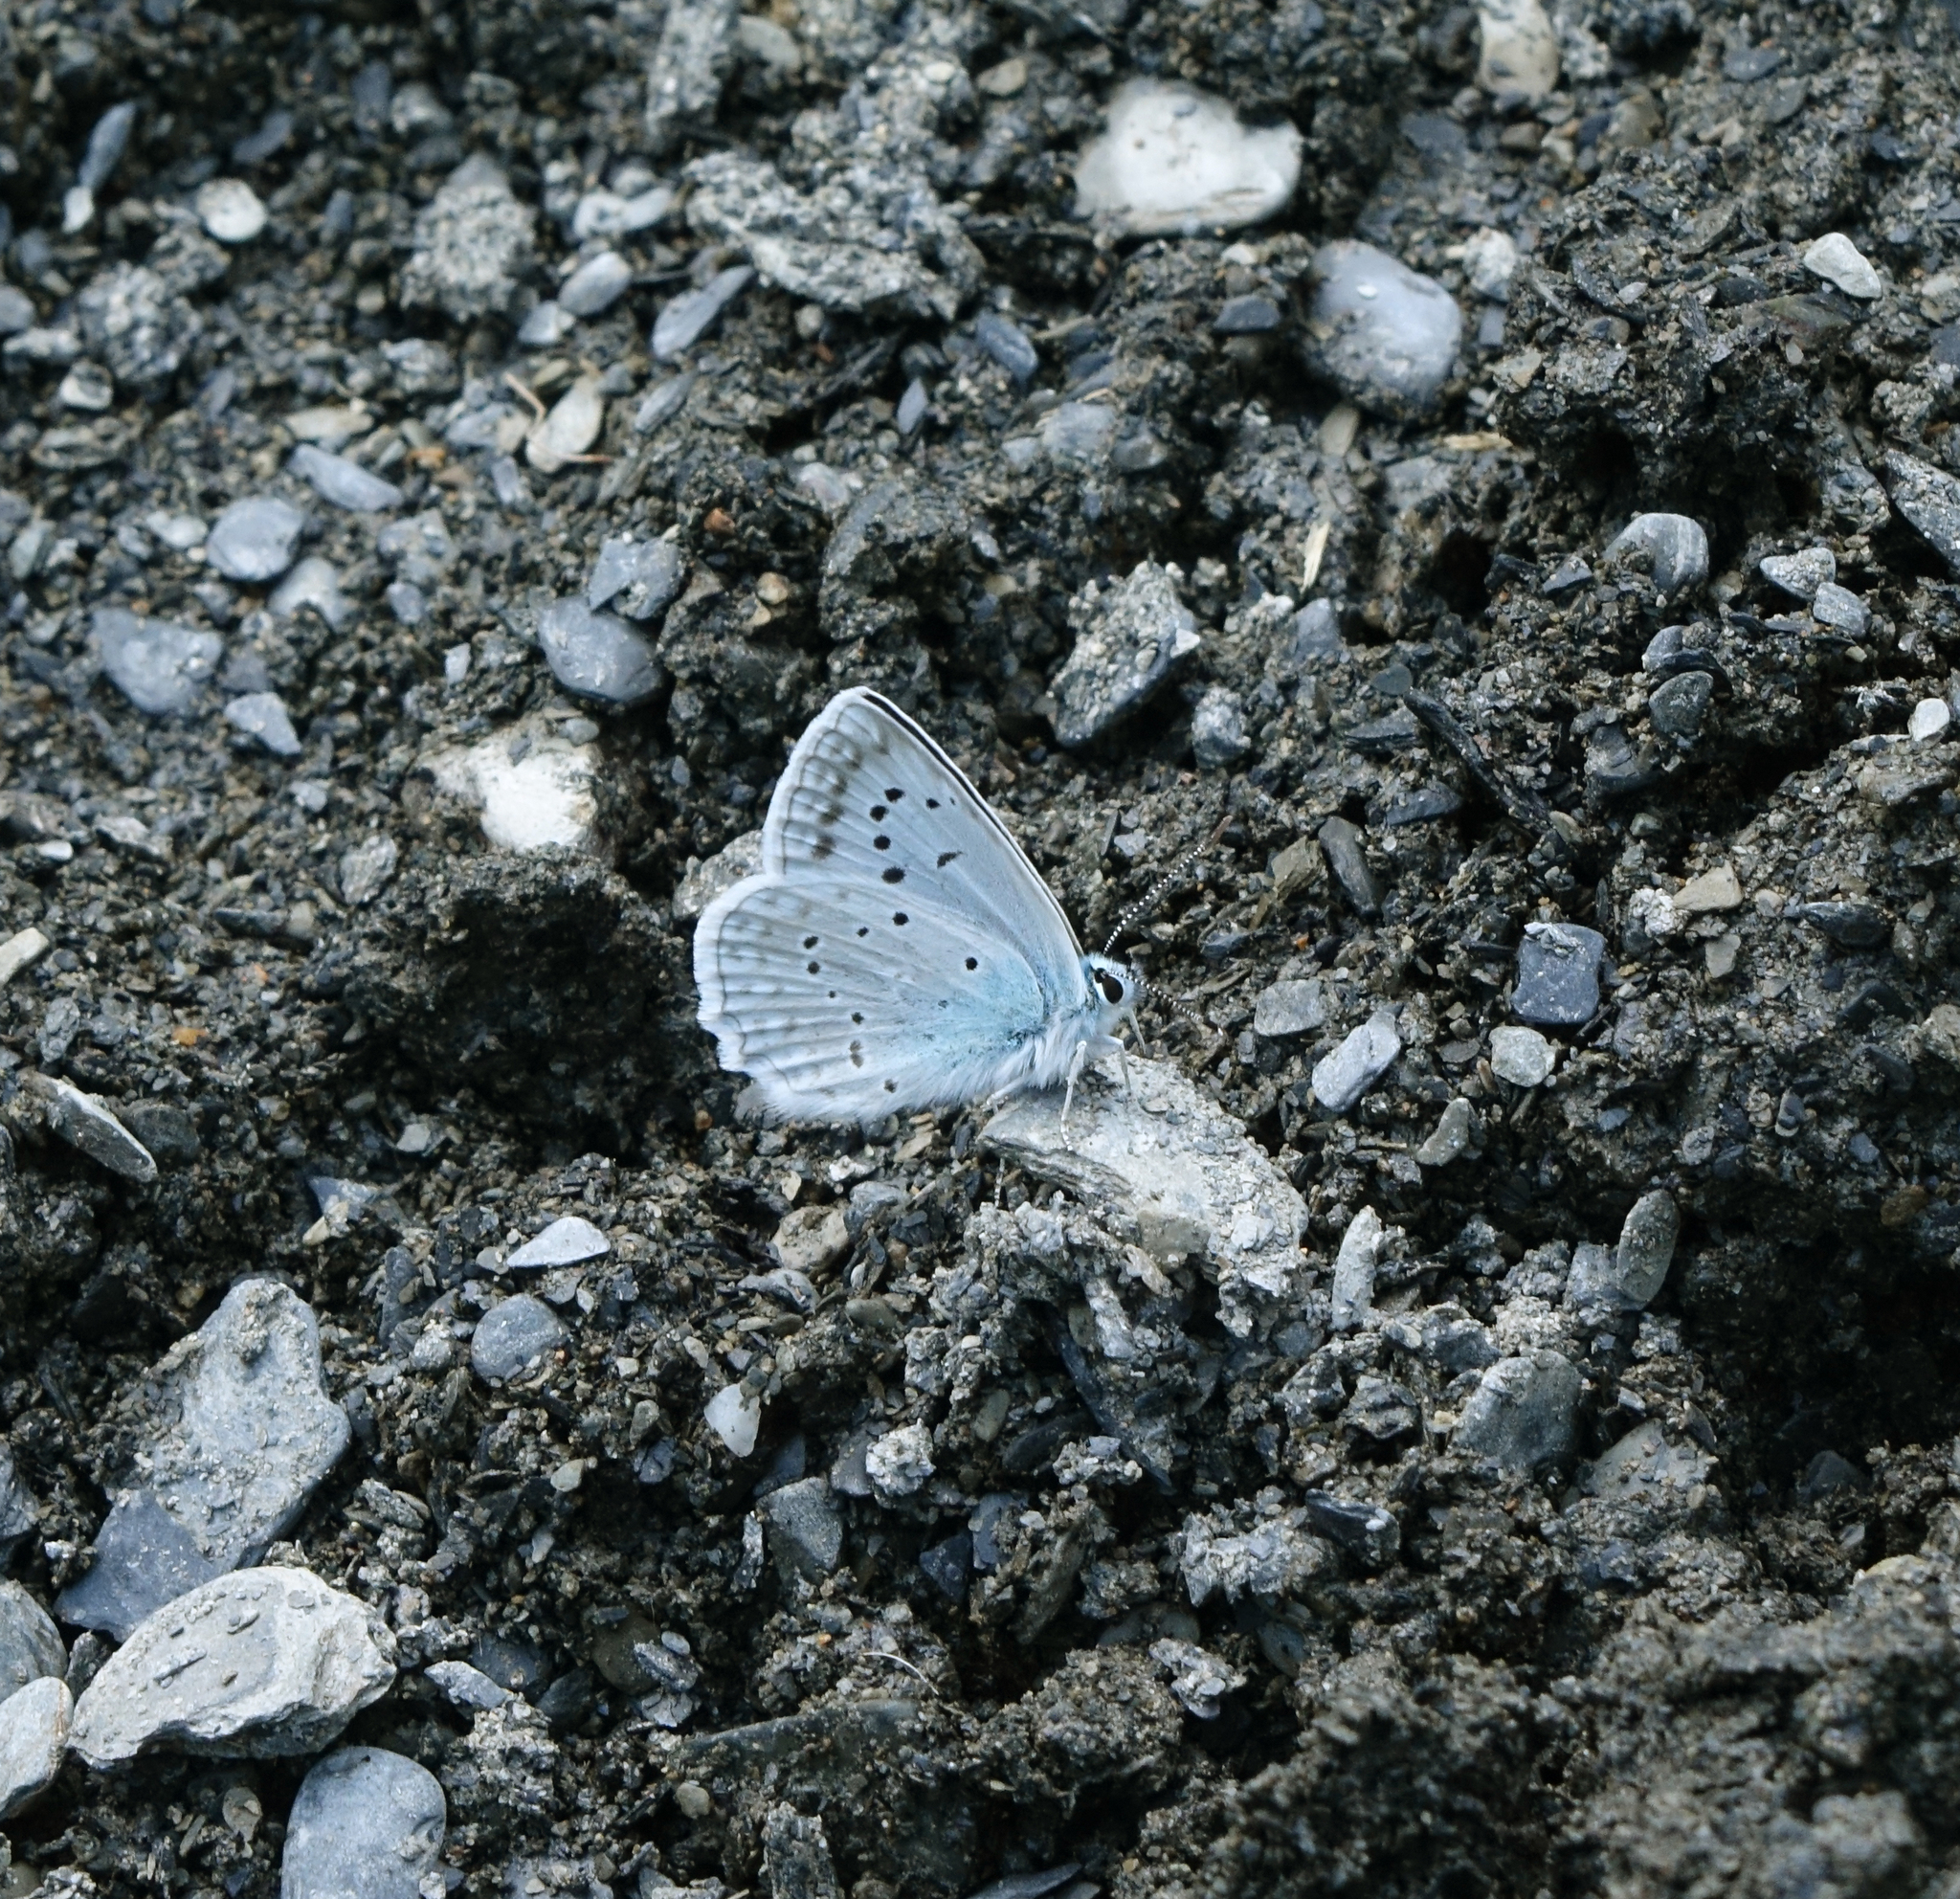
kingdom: Animalia
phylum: Arthropoda
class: Insecta
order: Lepidoptera
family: Lycaenidae
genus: Polyommatus
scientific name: Polyommatus daphnis
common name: Meleager's blue
